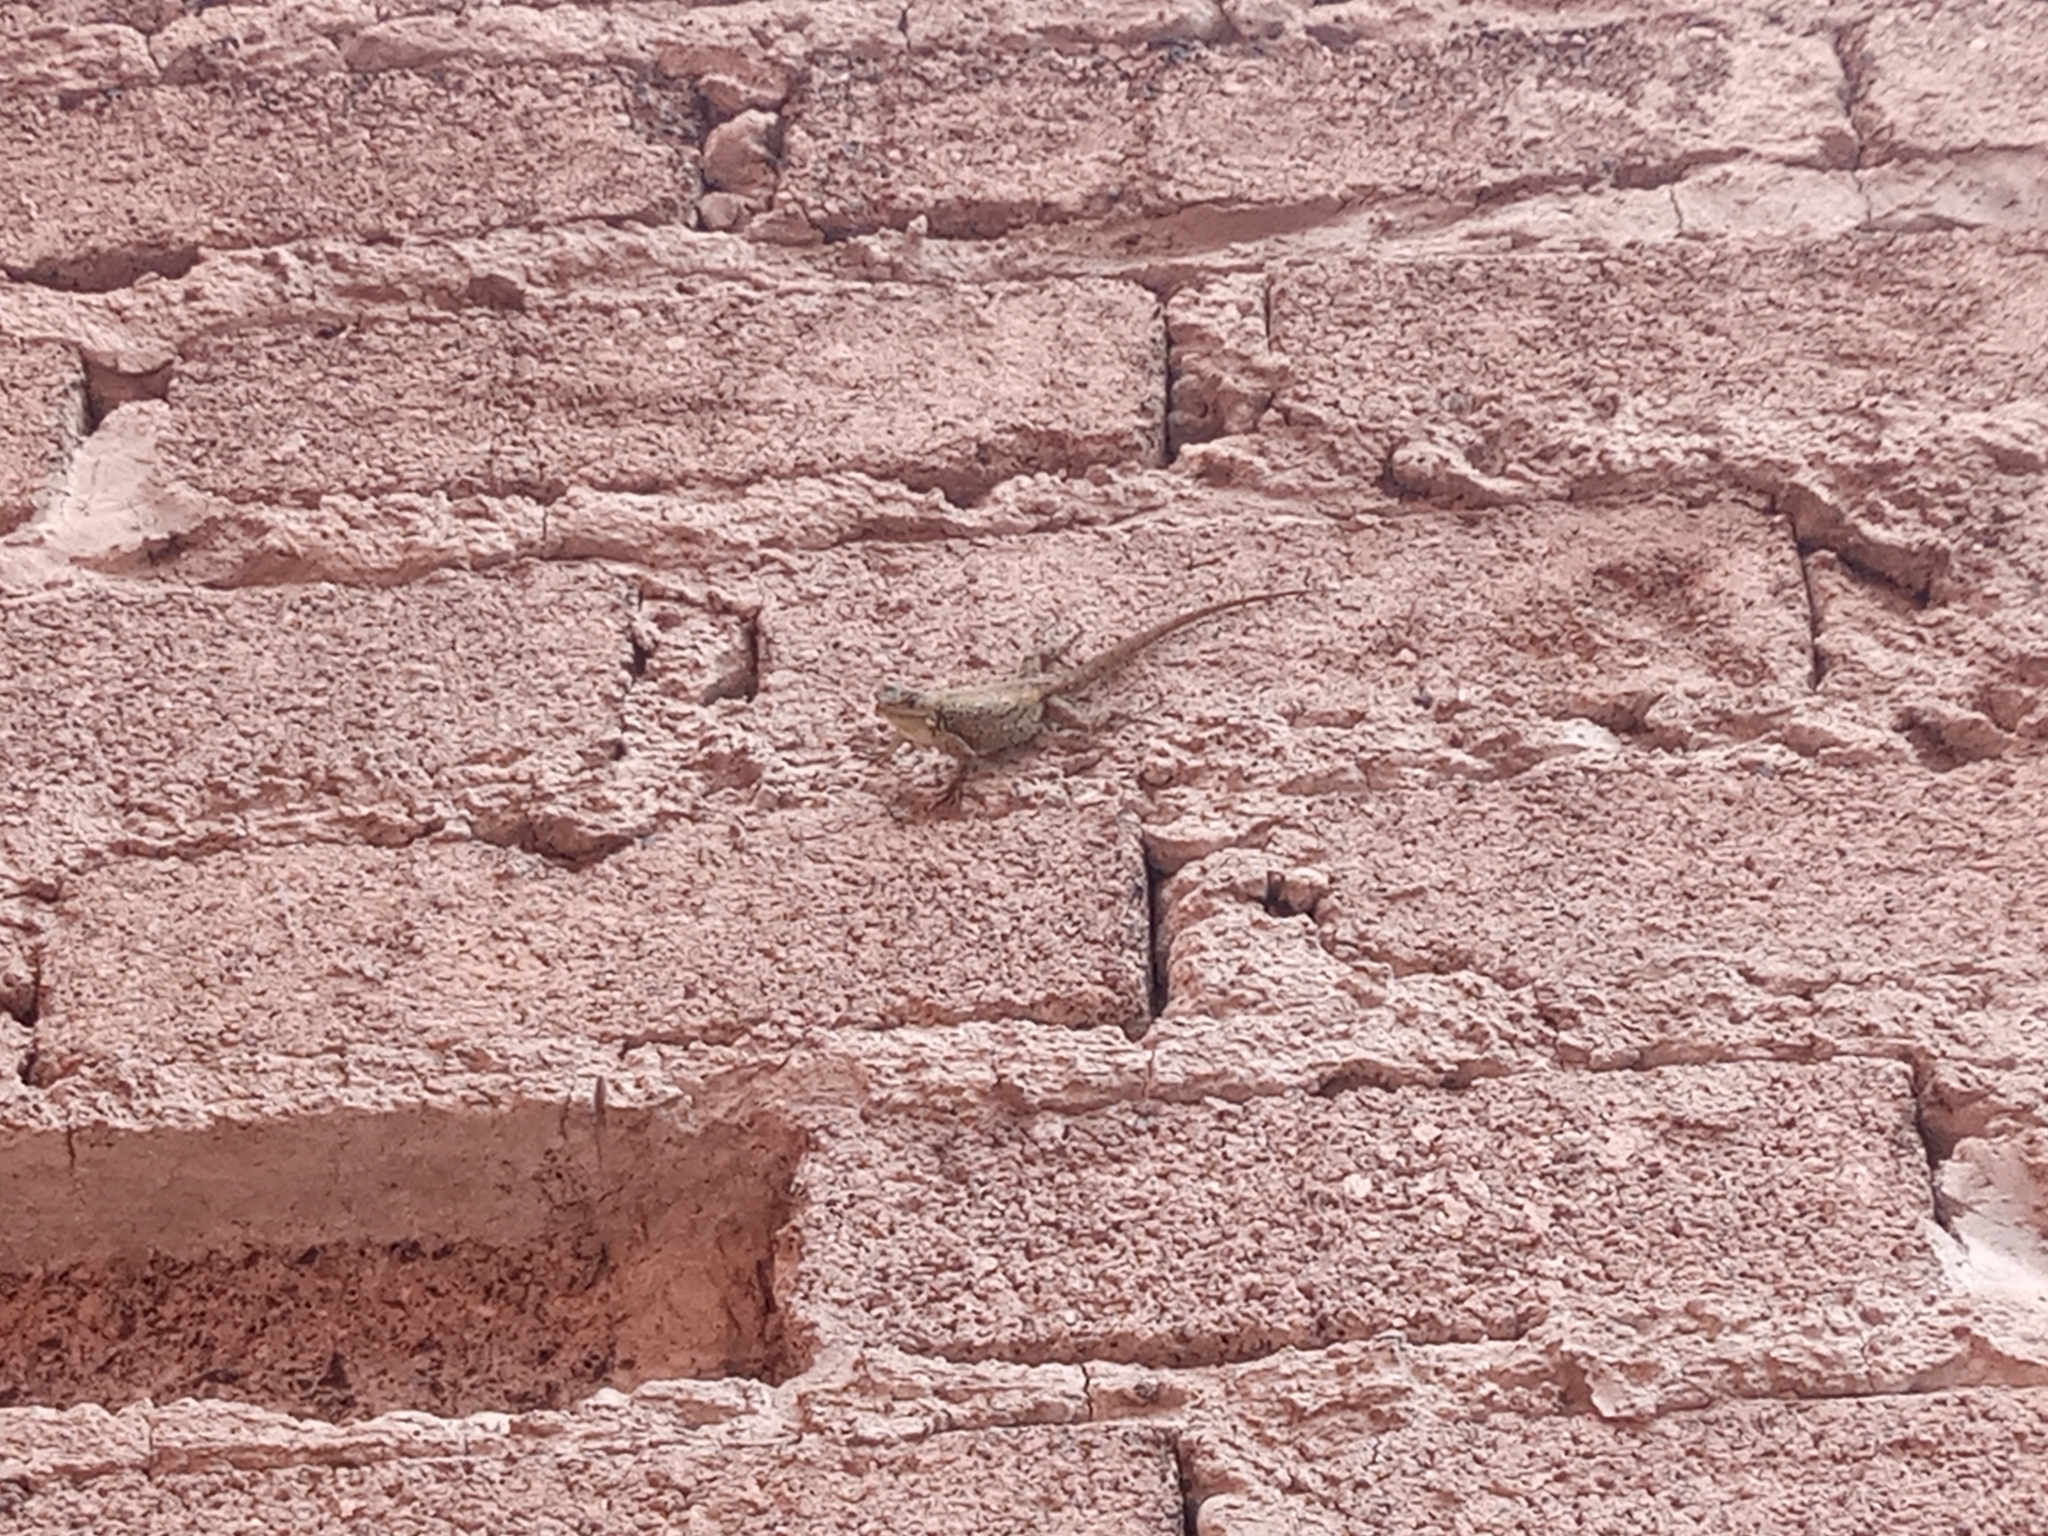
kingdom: Animalia
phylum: Chordata
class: Squamata
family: Phrynosomatidae
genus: Sceloporus
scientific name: Sceloporus grammicus
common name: Mesquite lizard
